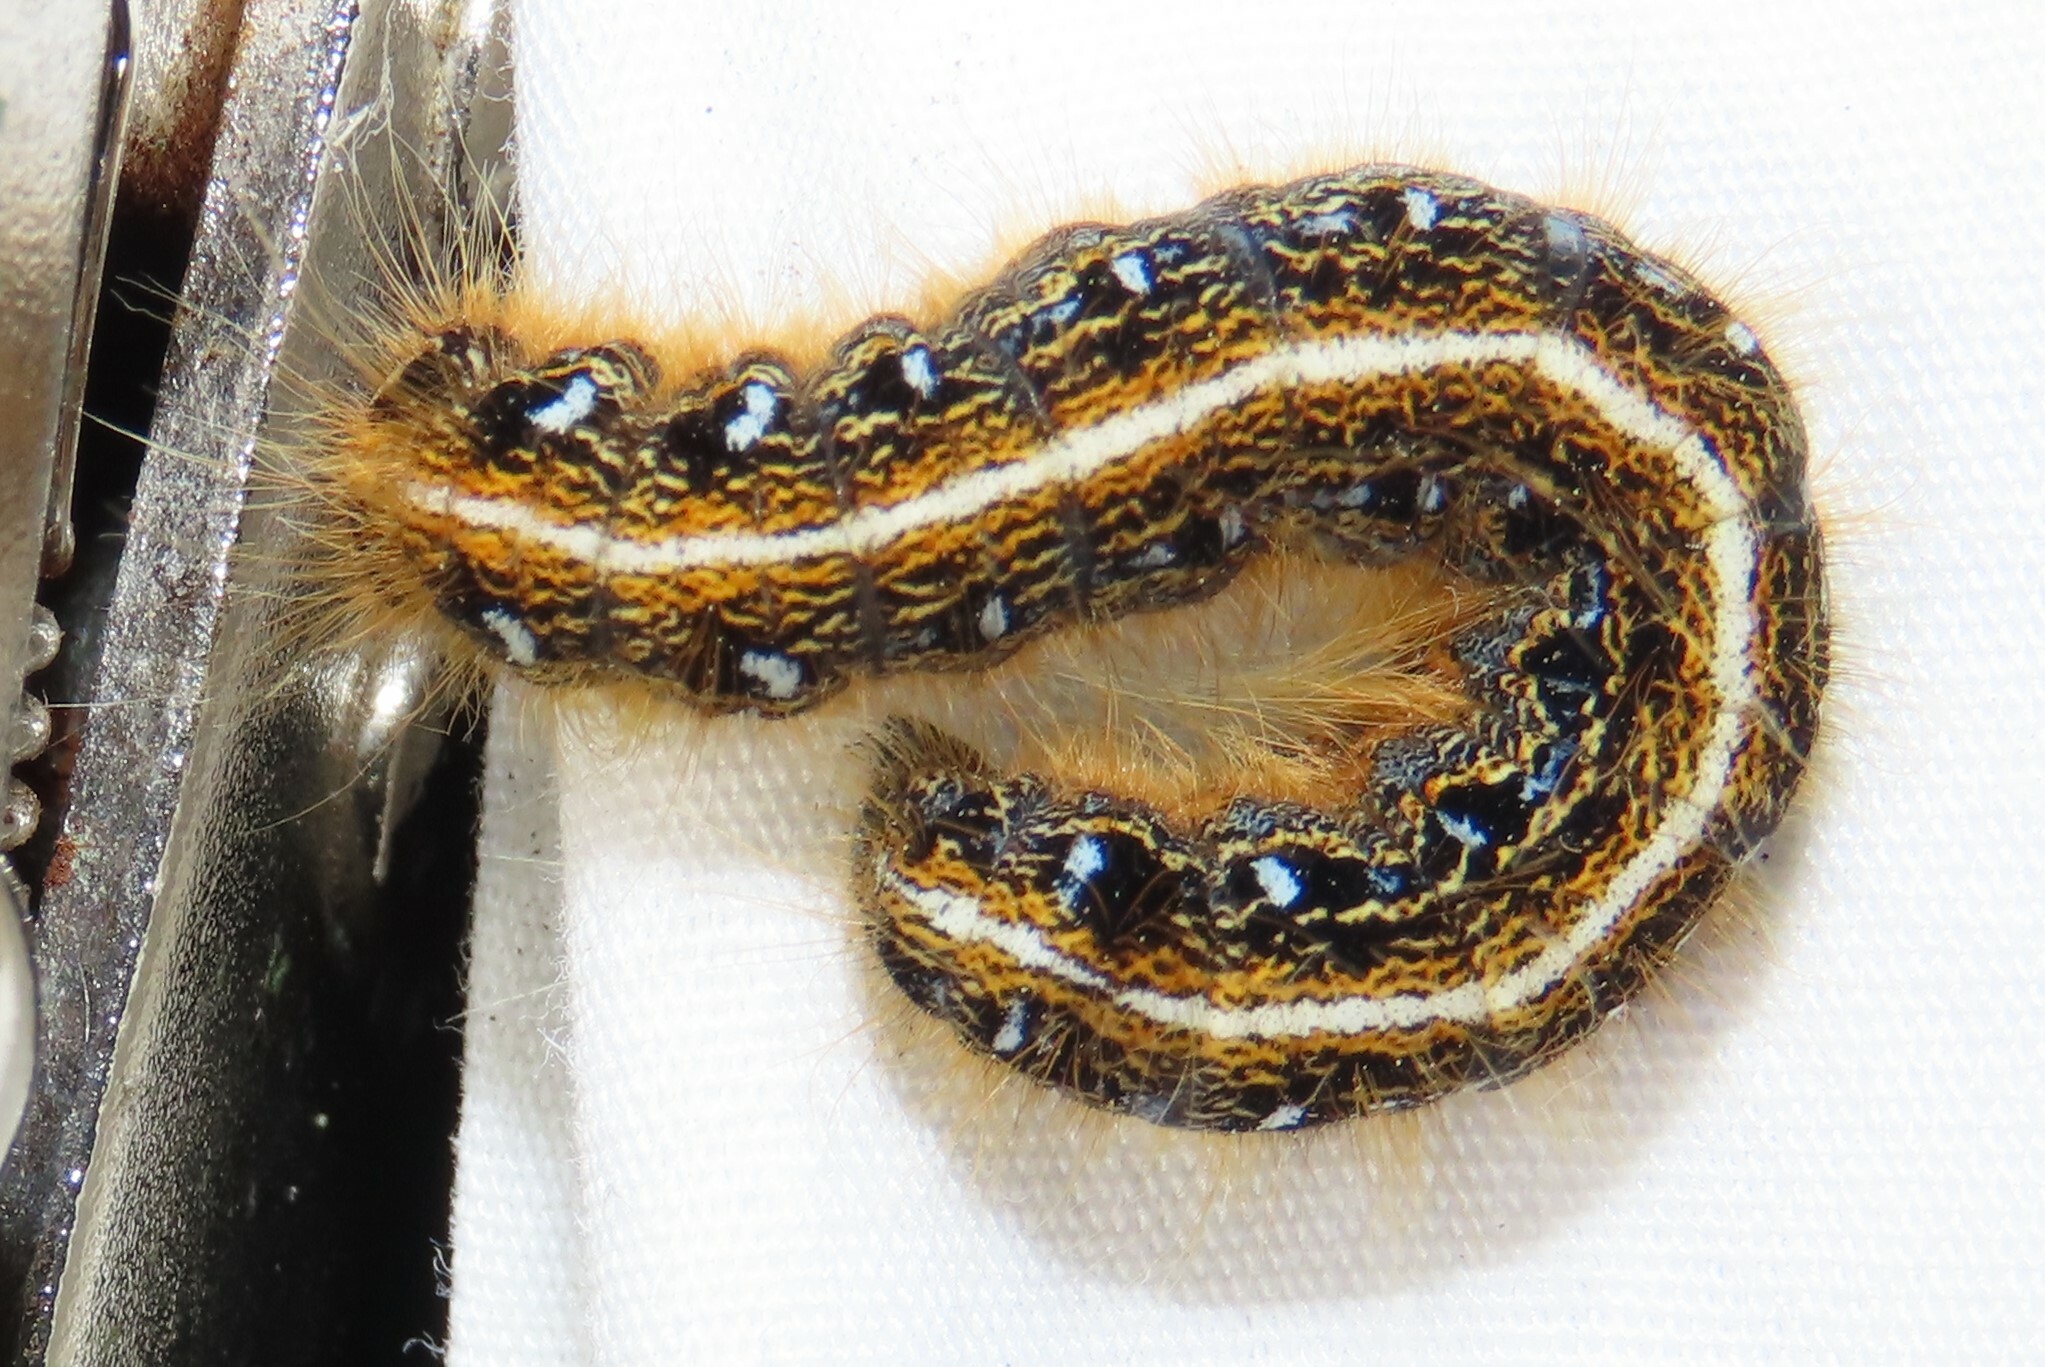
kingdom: Animalia
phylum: Arthropoda
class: Insecta
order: Lepidoptera
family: Lasiocampidae
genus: Malacosoma
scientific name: Malacosoma americana
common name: Eastern tent caterpillar moth
